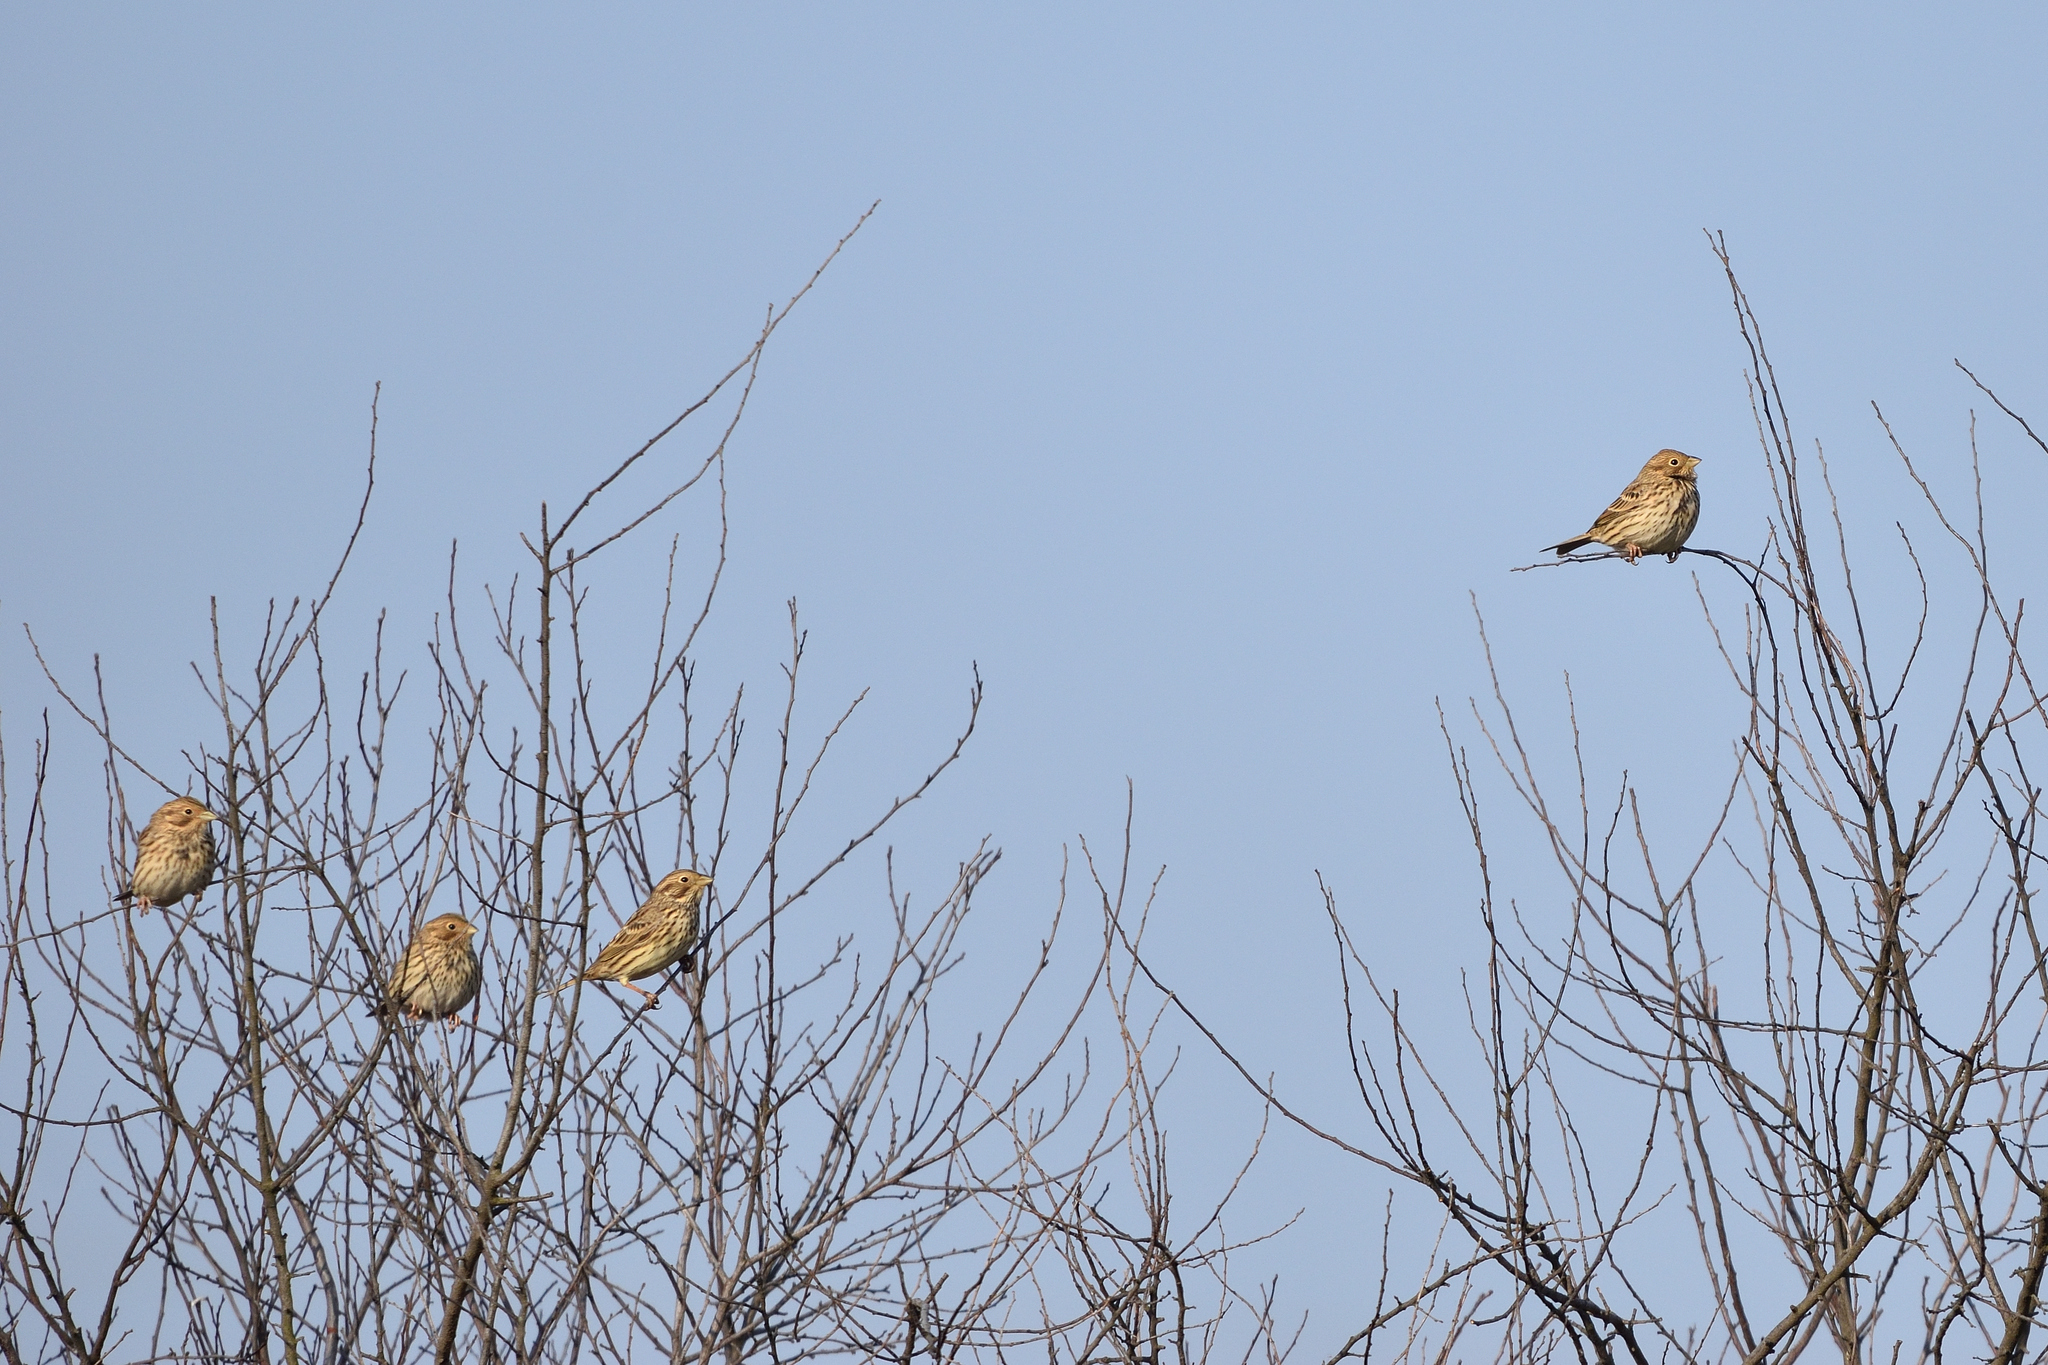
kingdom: Animalia
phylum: Chordata
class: Aves
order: Passeriformes
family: Emberizidae
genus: Emberiza
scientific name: Emberiza calandra
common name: Corn bunting
